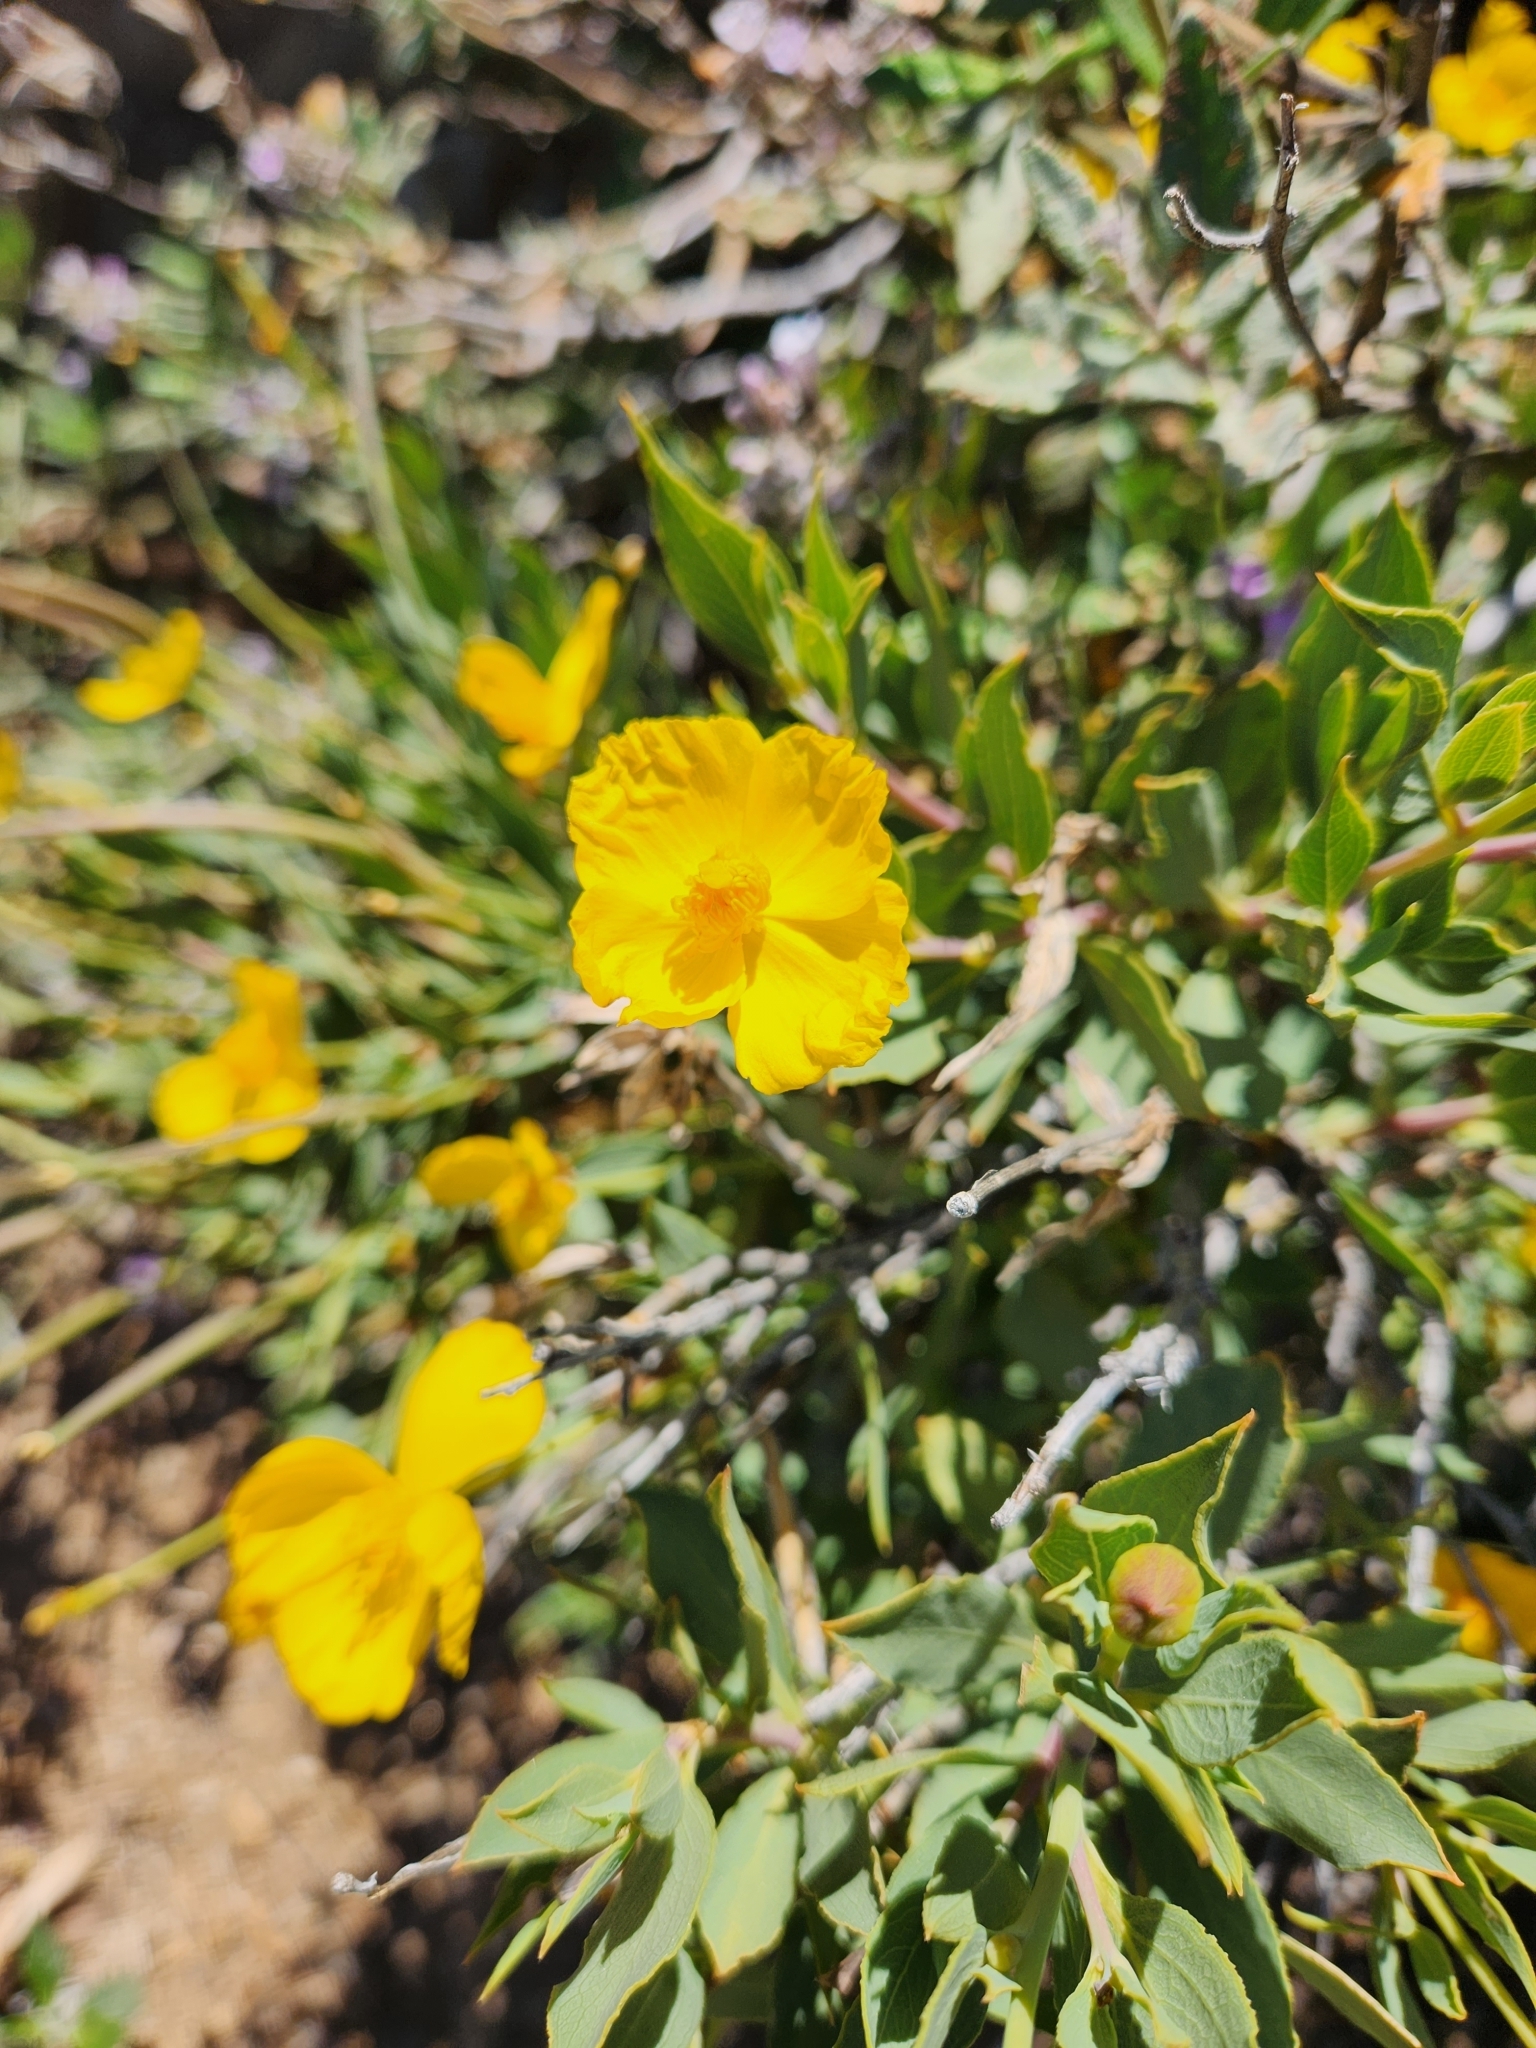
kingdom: Plantae
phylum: Tracheophyta
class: Magnoliopsida
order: Ranunculales
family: Papaveraceae
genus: Dendromecon
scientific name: Dendromecon rigida
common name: Tree poppy
